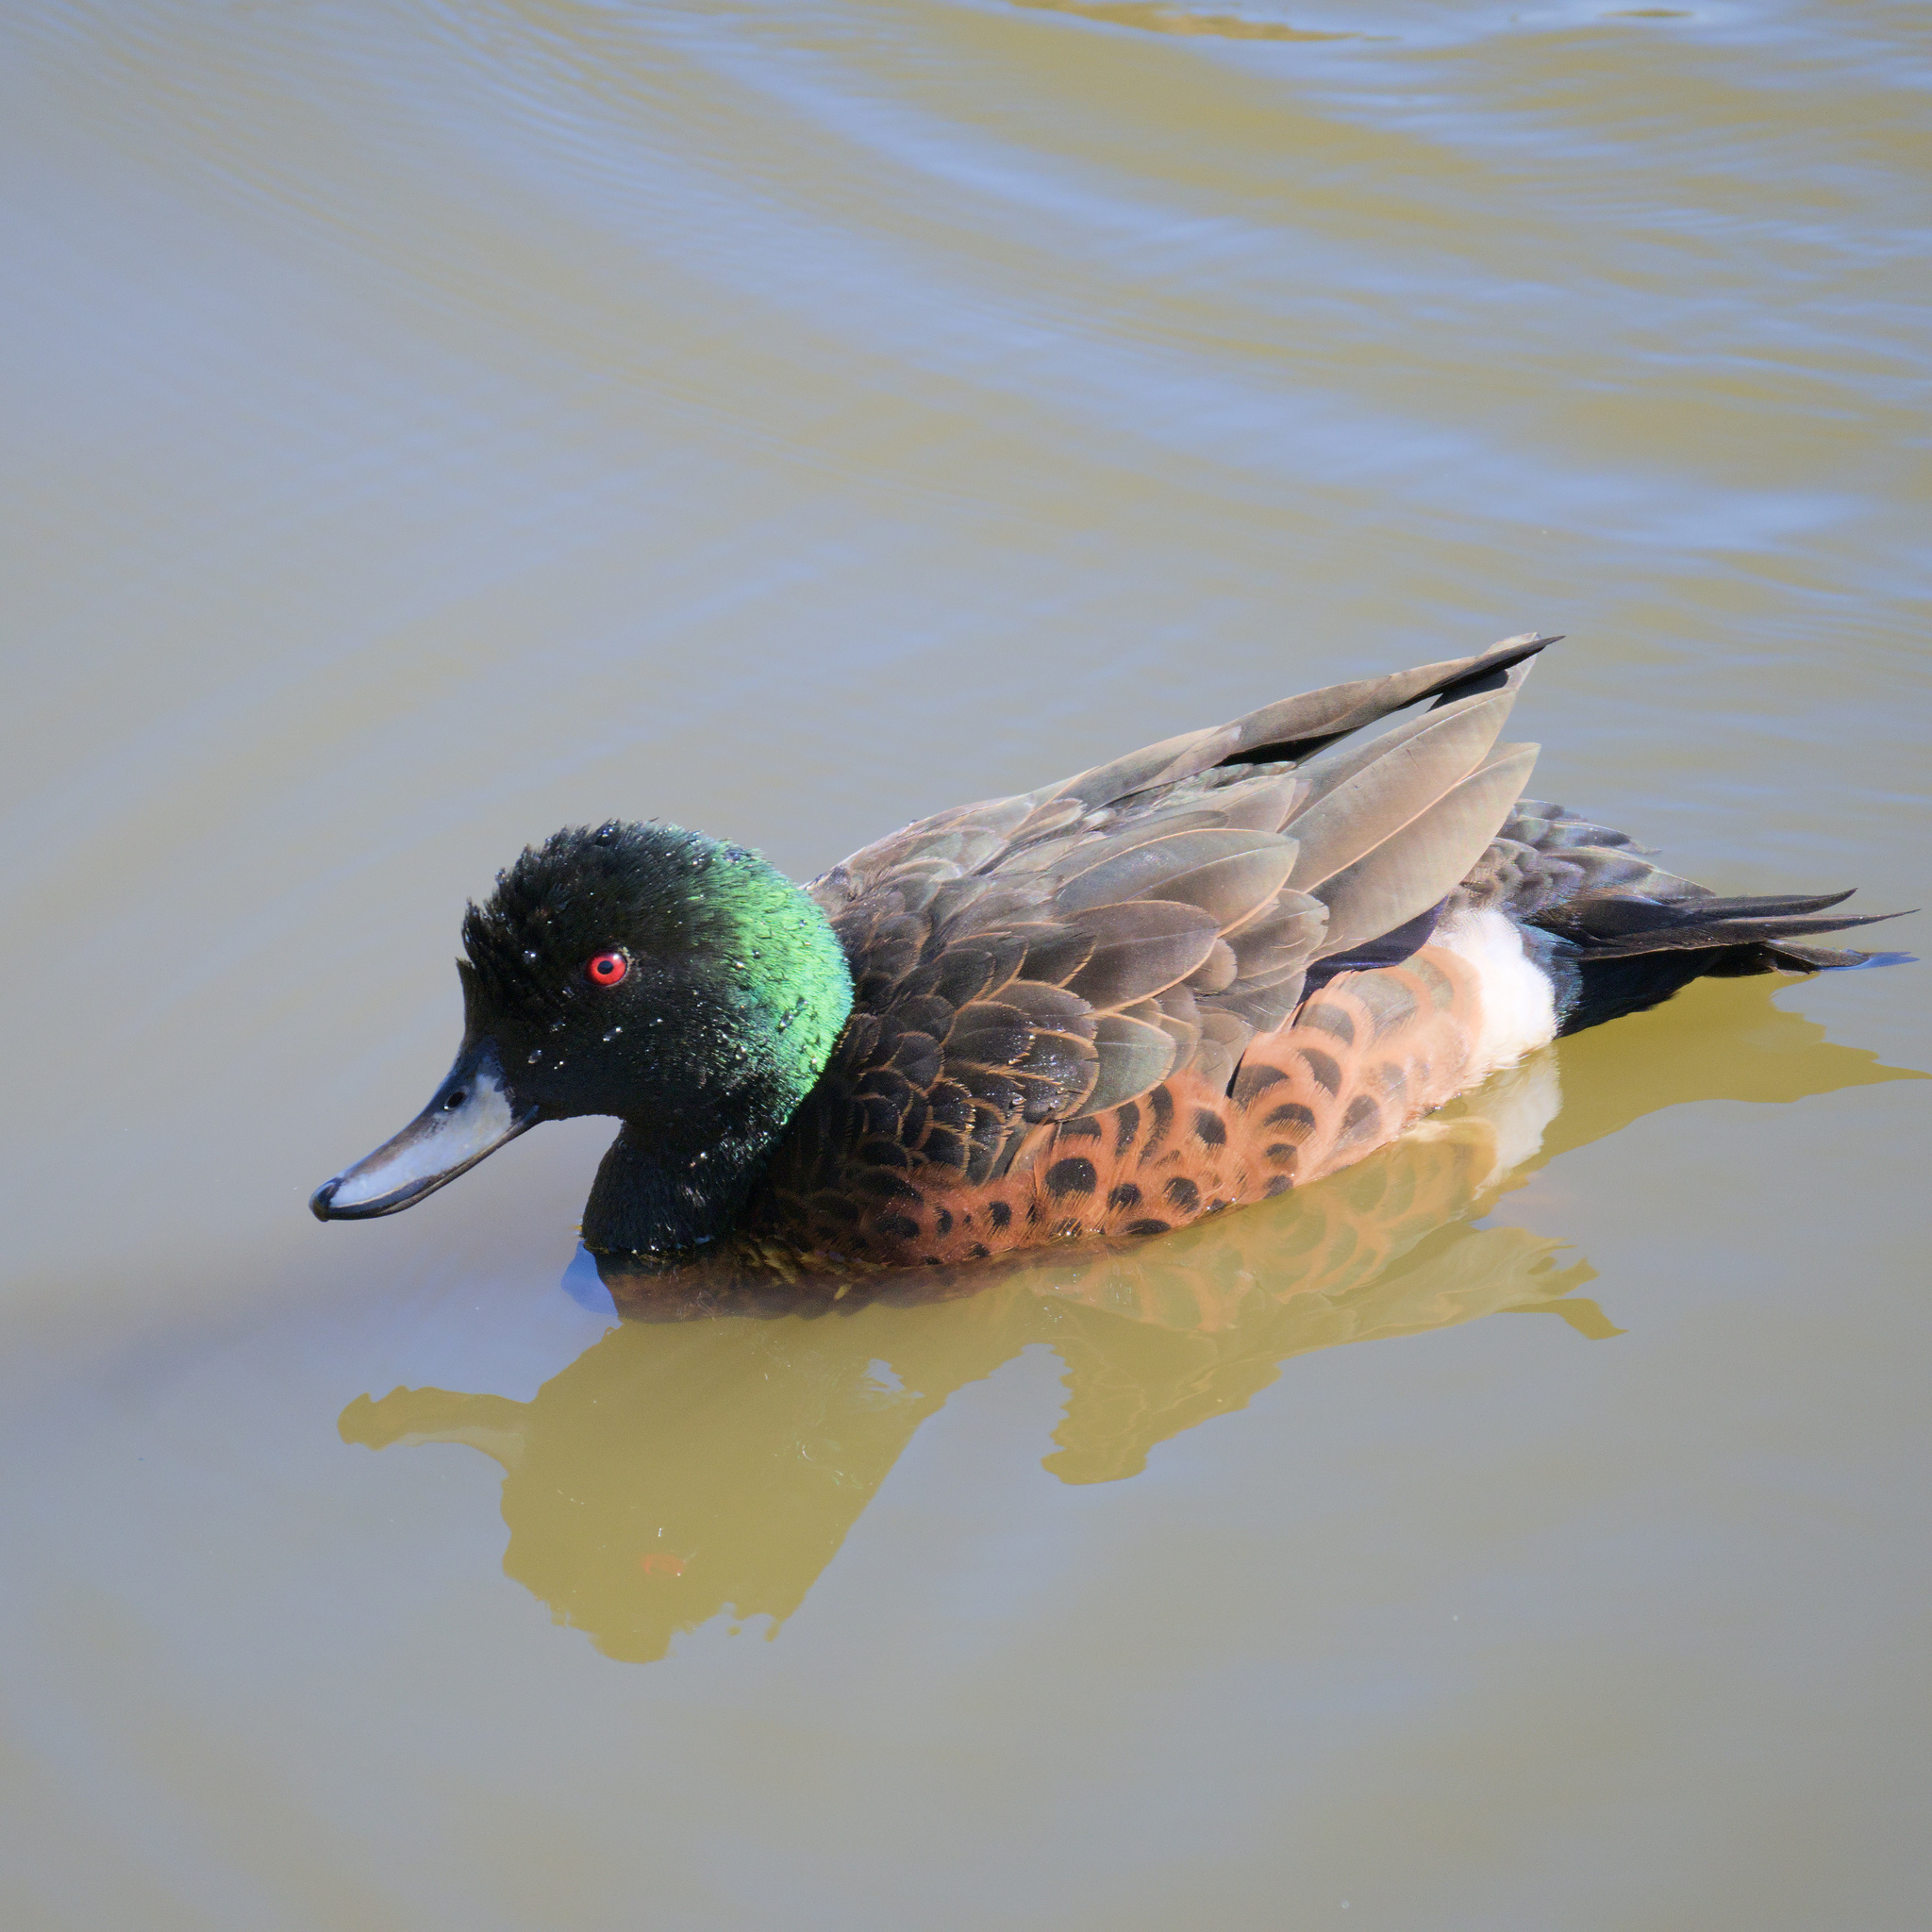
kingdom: Animalia
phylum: Chordata
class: Aves
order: Anseriformes
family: Anatidae
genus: Anas
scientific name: Anas castanea
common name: Chestnut teal
